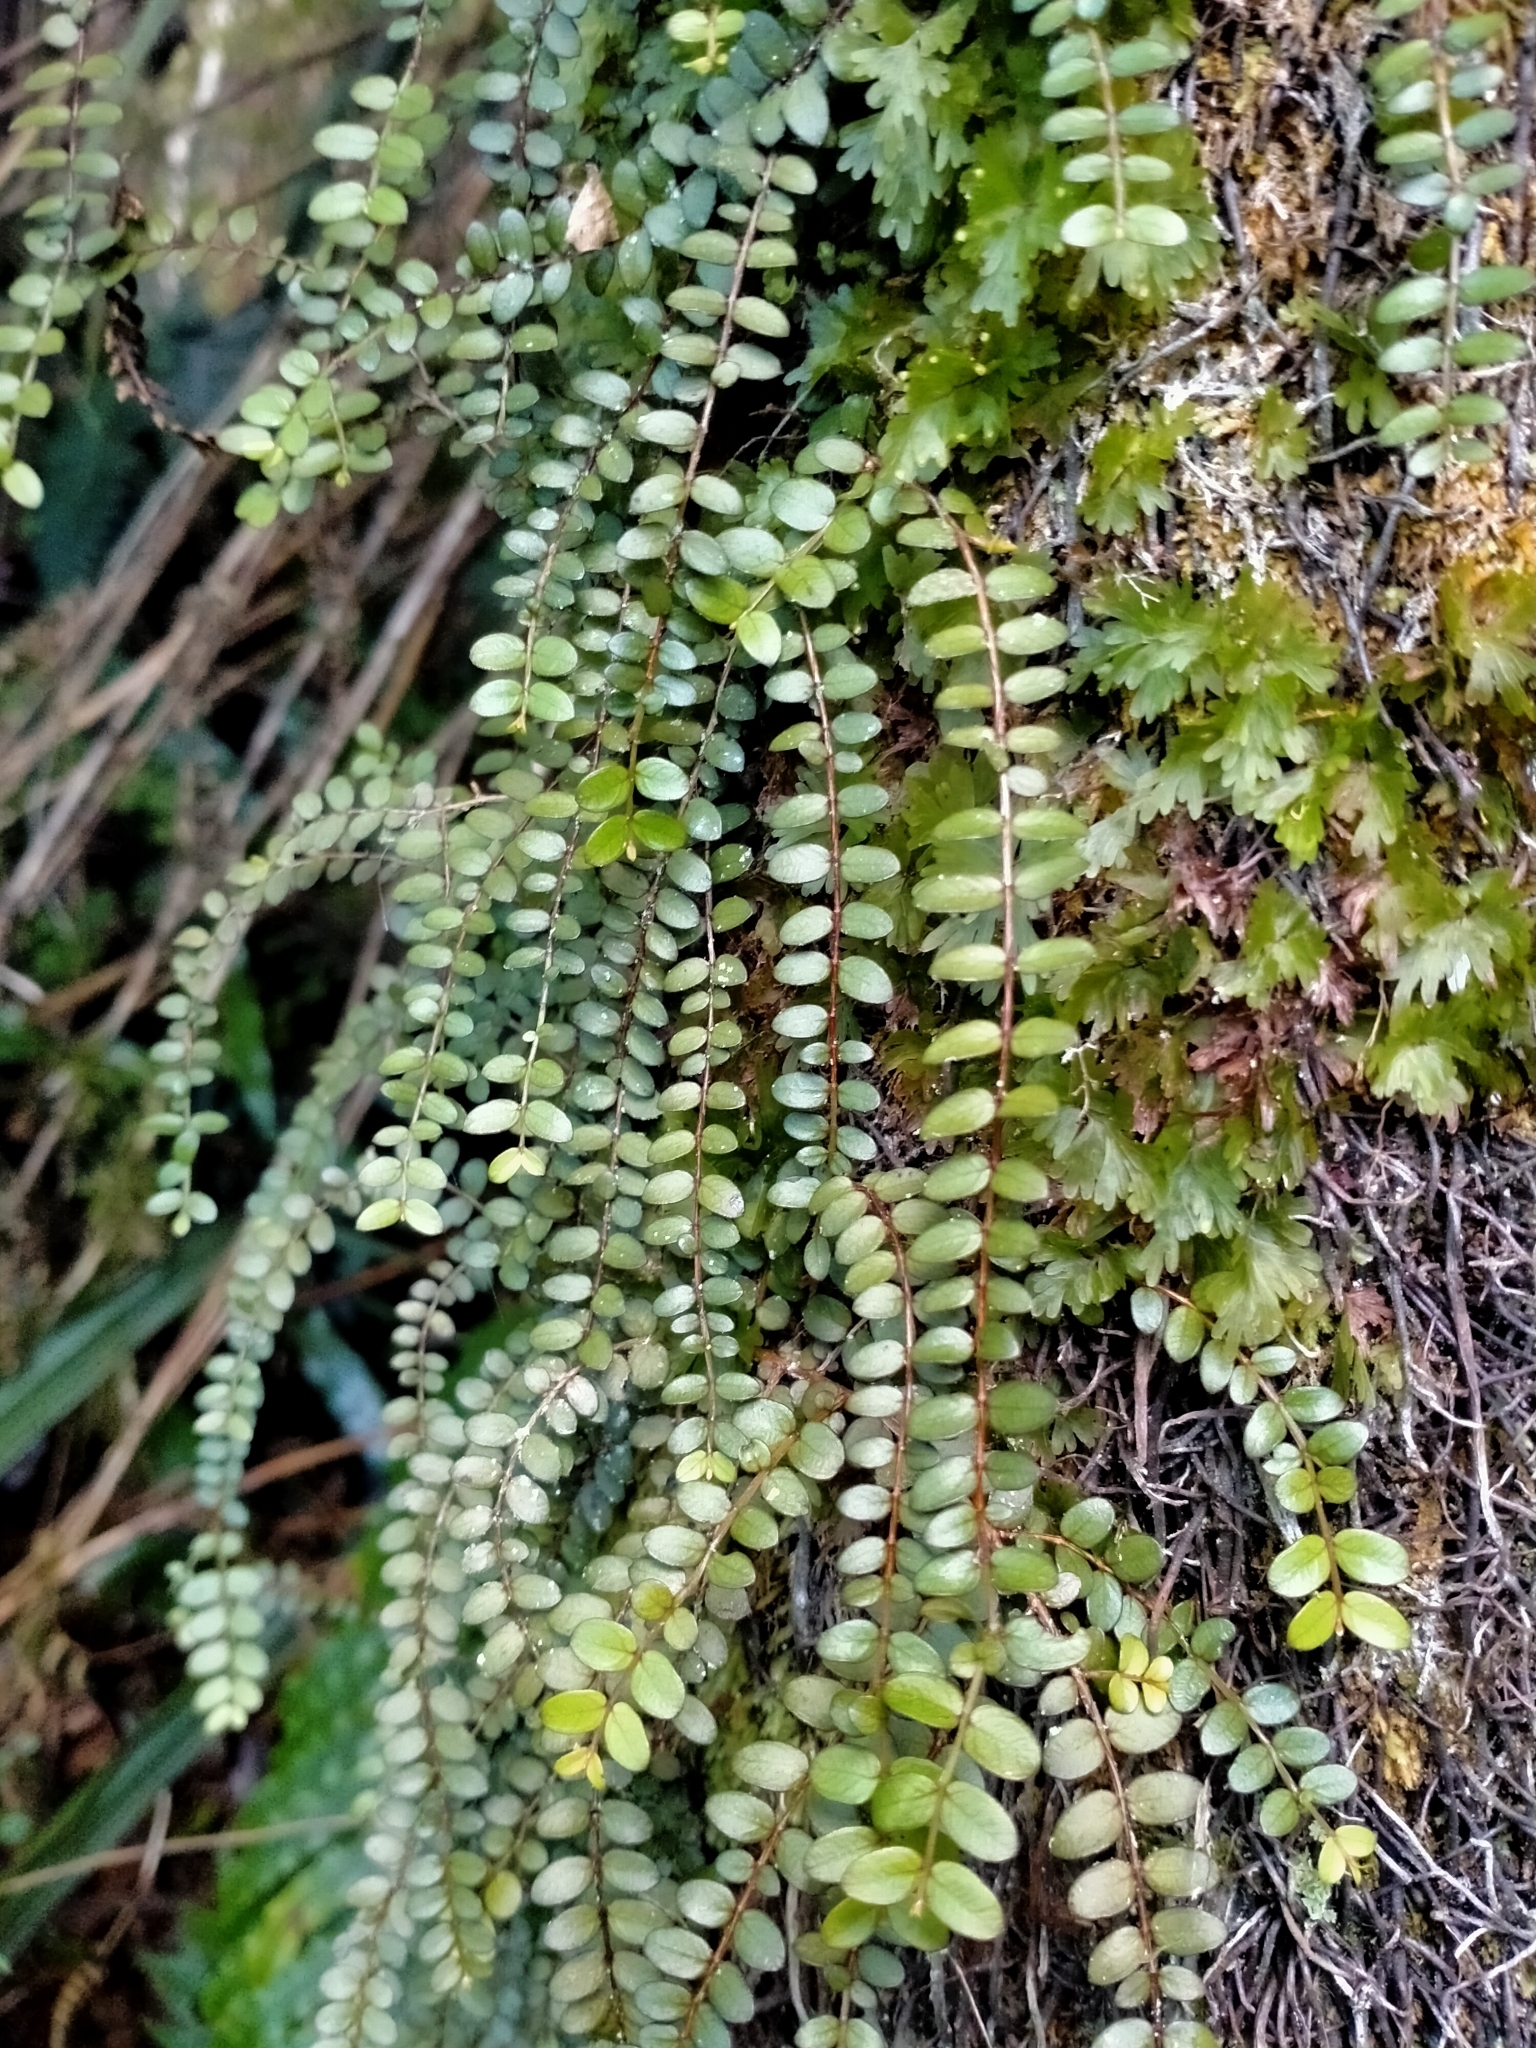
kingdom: Plantae
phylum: Tracheophyta
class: Magnoliopsida
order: Myrtales
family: Myrtaceae
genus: Metrosideros
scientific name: Metrosideros diffusa
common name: Small ratavine
